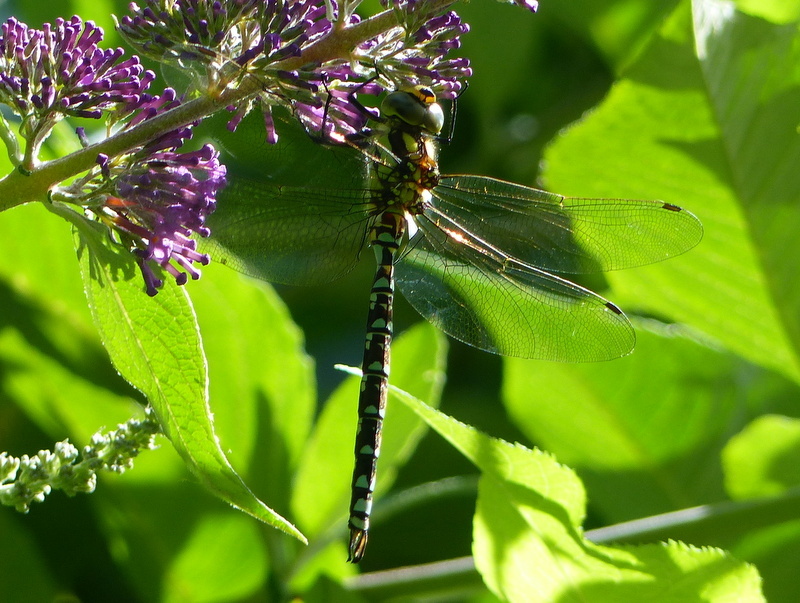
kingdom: Animalia
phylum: Arthropoda
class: Insecta
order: Odonata
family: Aeshnidae
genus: Aeshna
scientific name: Aeshna cyanea
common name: Southern hawker
